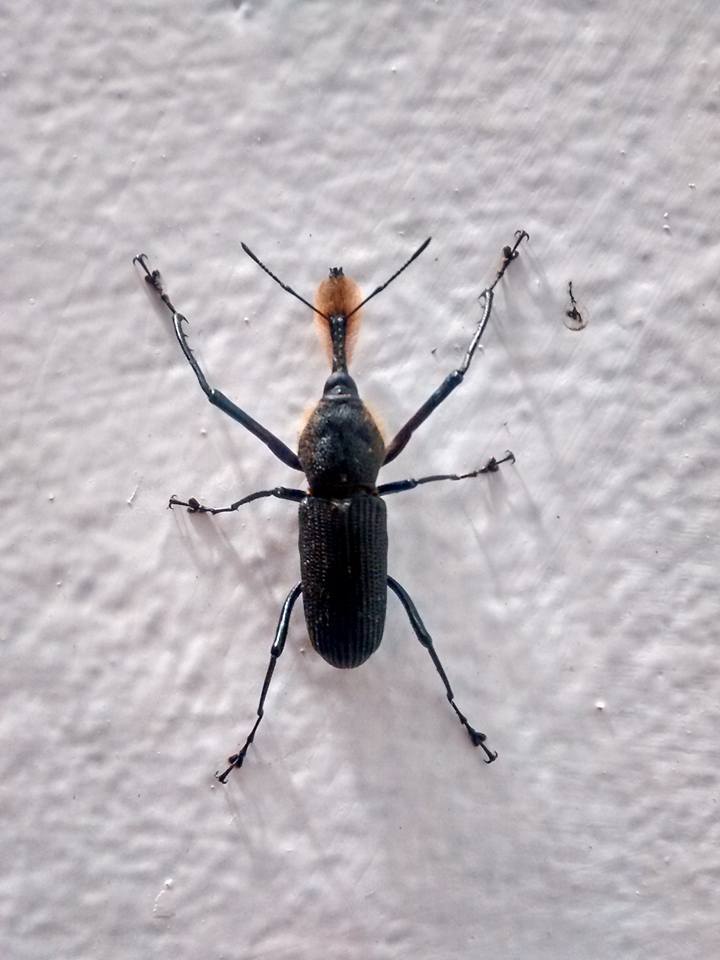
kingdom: Animalia
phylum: Arthropoda
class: Insecta
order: Coleoptera
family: Dryophthoridae
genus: Rhinostomus
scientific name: Rhinostomus barbirostris
